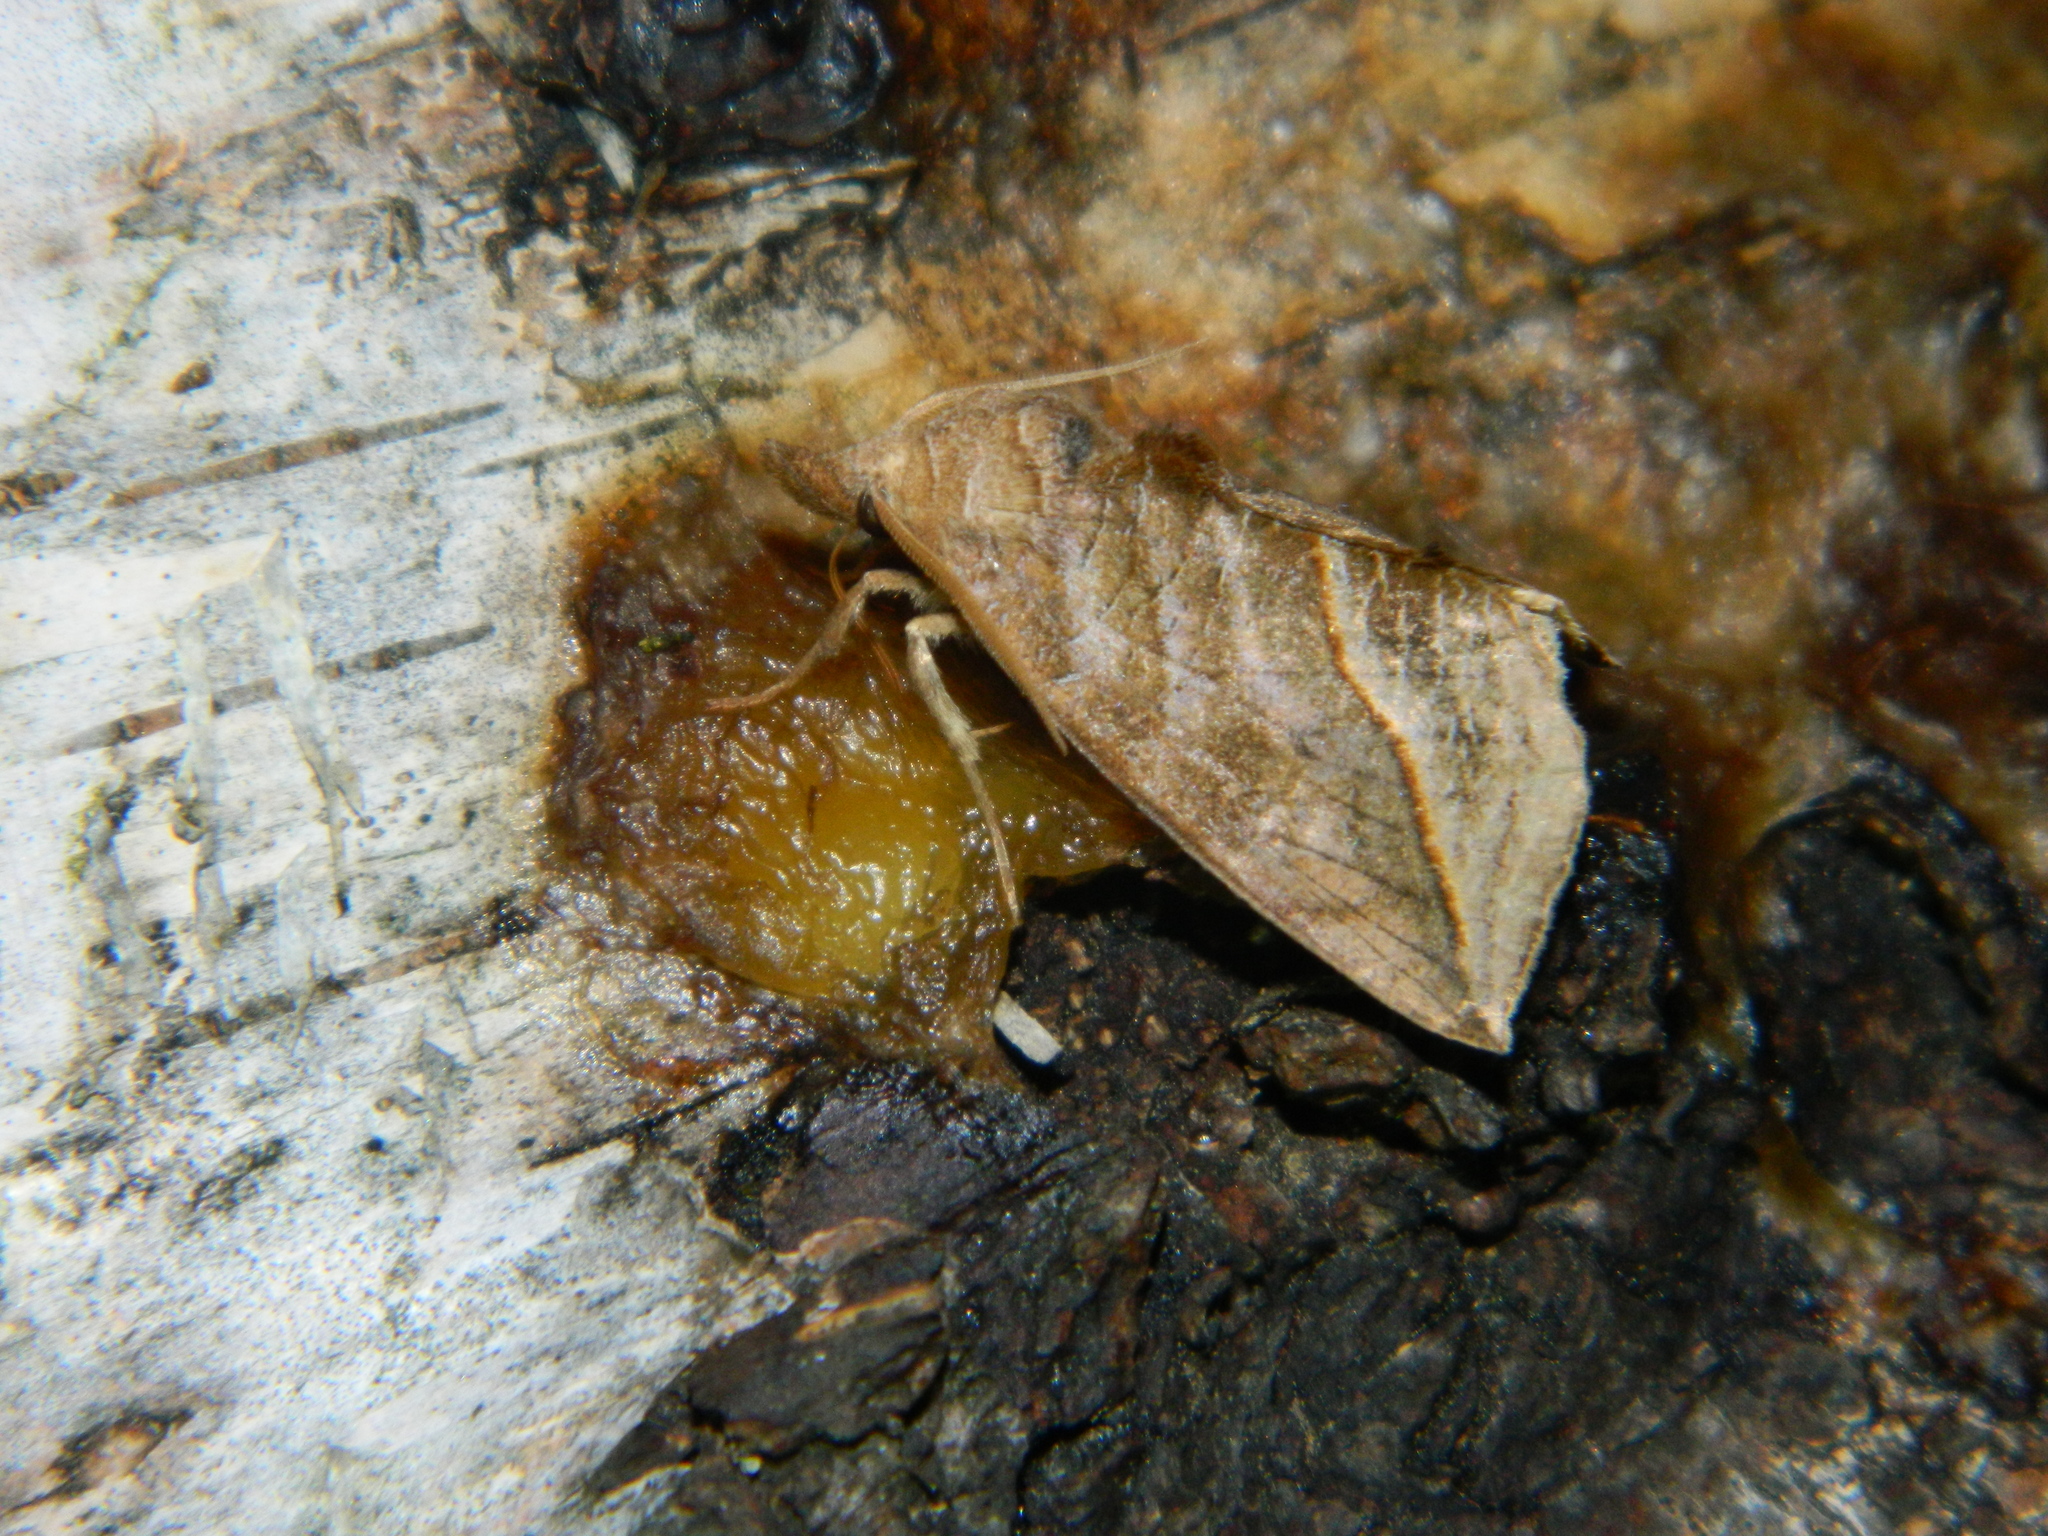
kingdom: Animalia
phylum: Arthropoda
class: Insecta
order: Lepidoptera
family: Erebidae
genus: Calyptra
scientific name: Calyptra canadensis
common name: Canadian owlet
